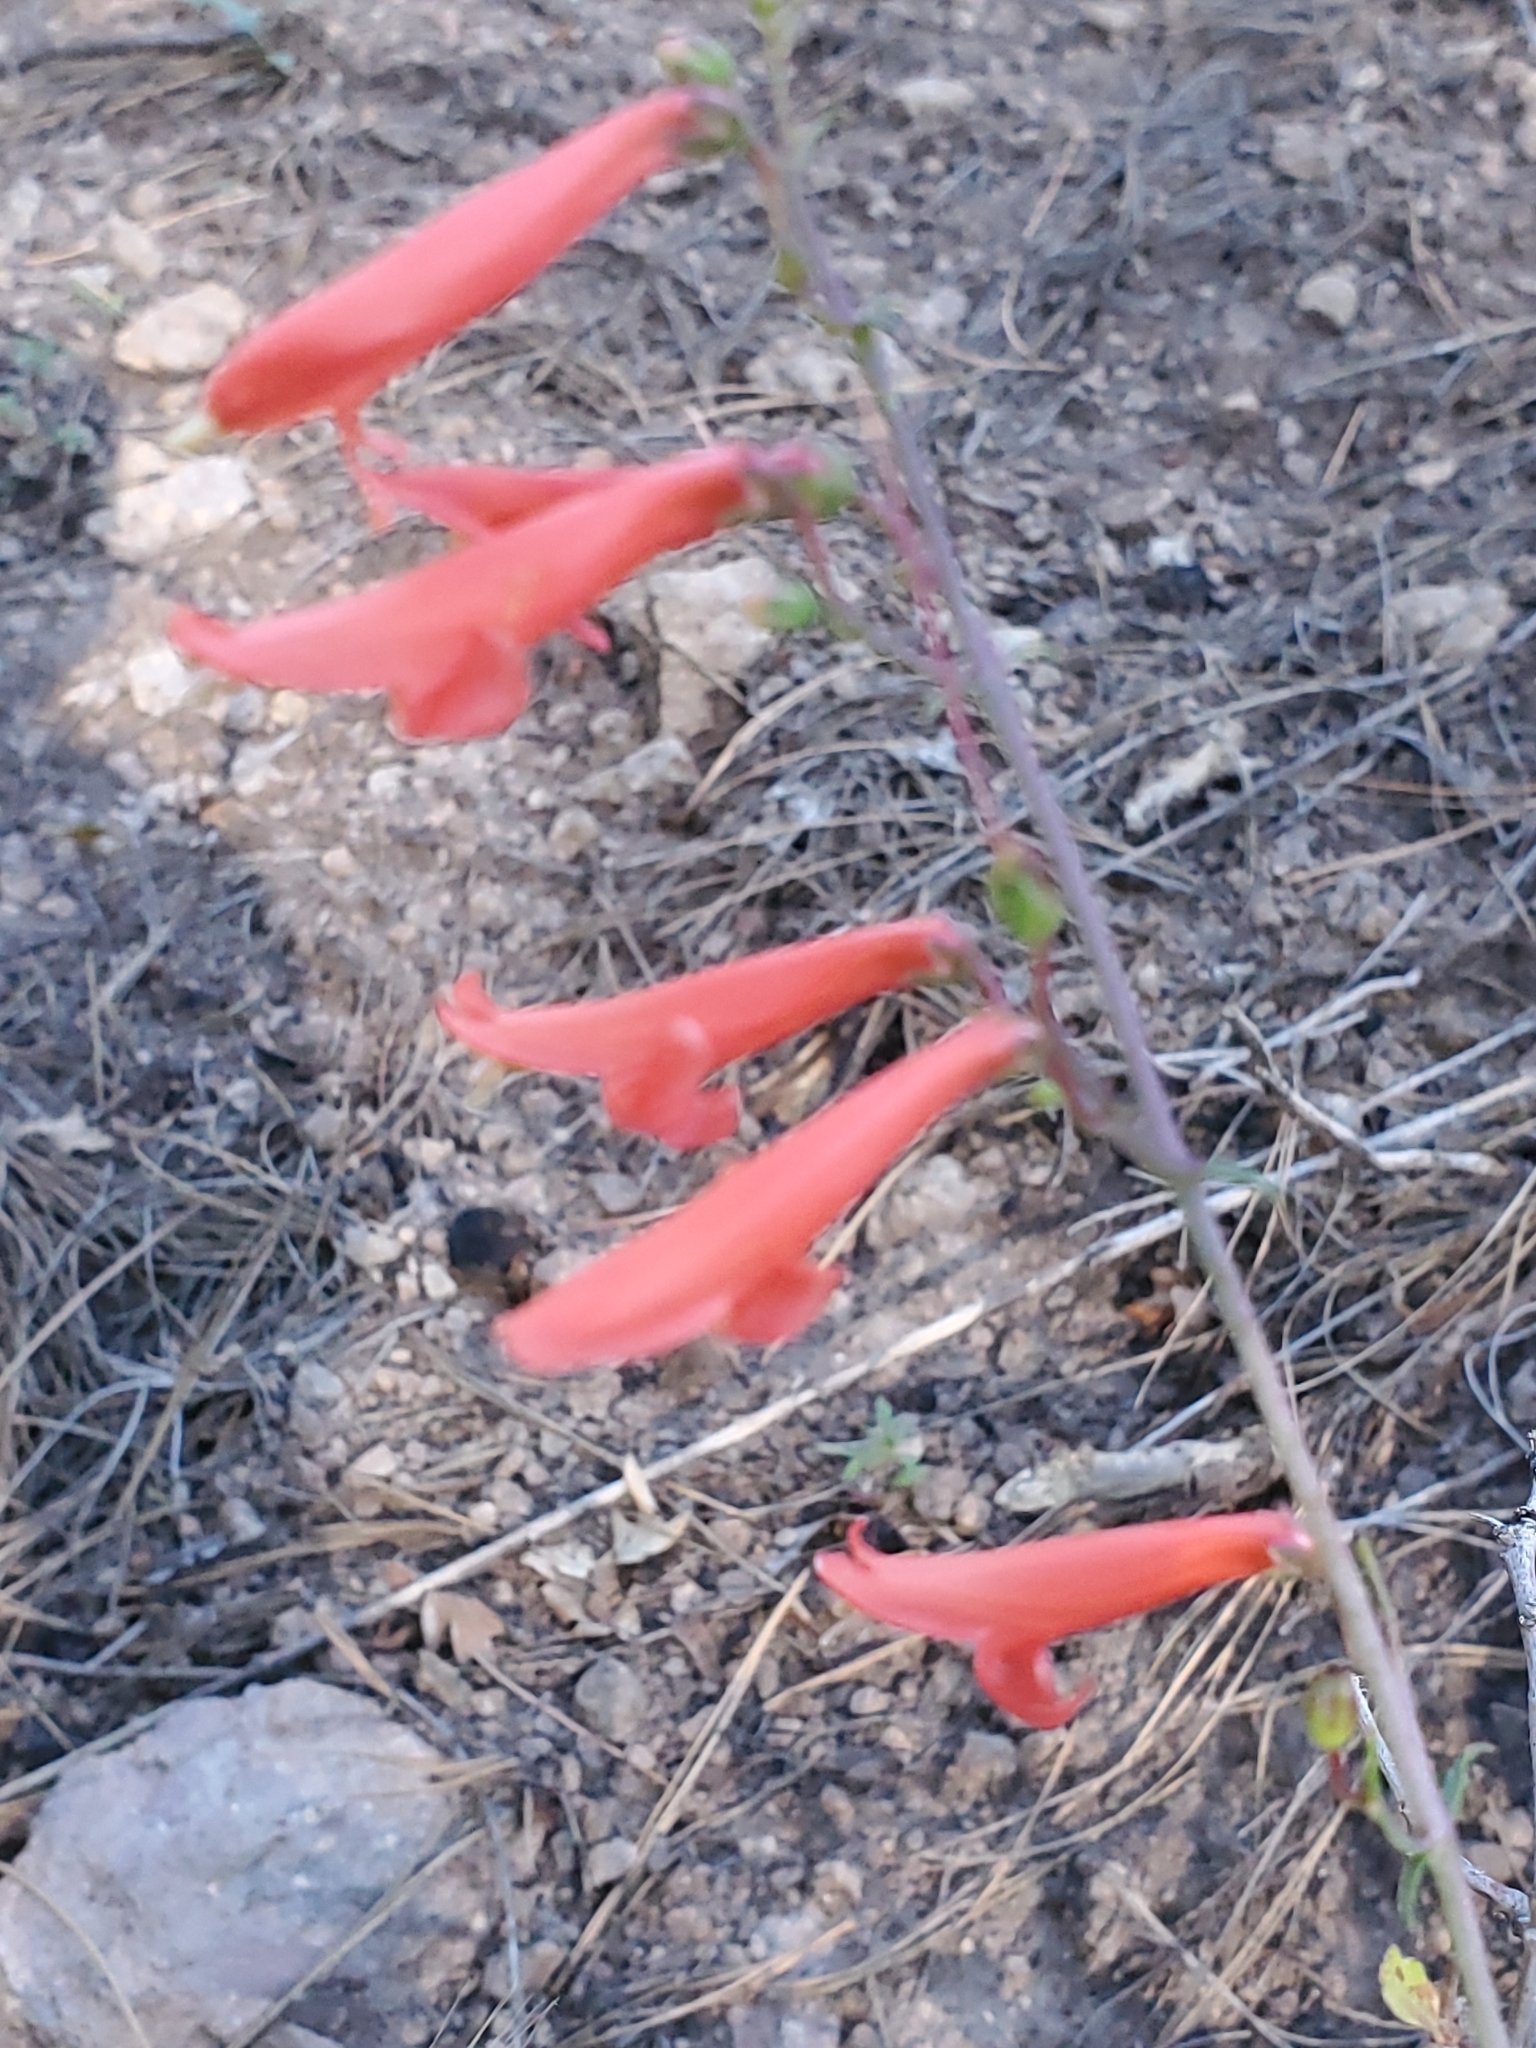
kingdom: Plantae
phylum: Tracheophyta
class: Magnoliopsida
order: Lamiales
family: Plantaginaceae
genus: Penstemon
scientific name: Penstemon barbatus
